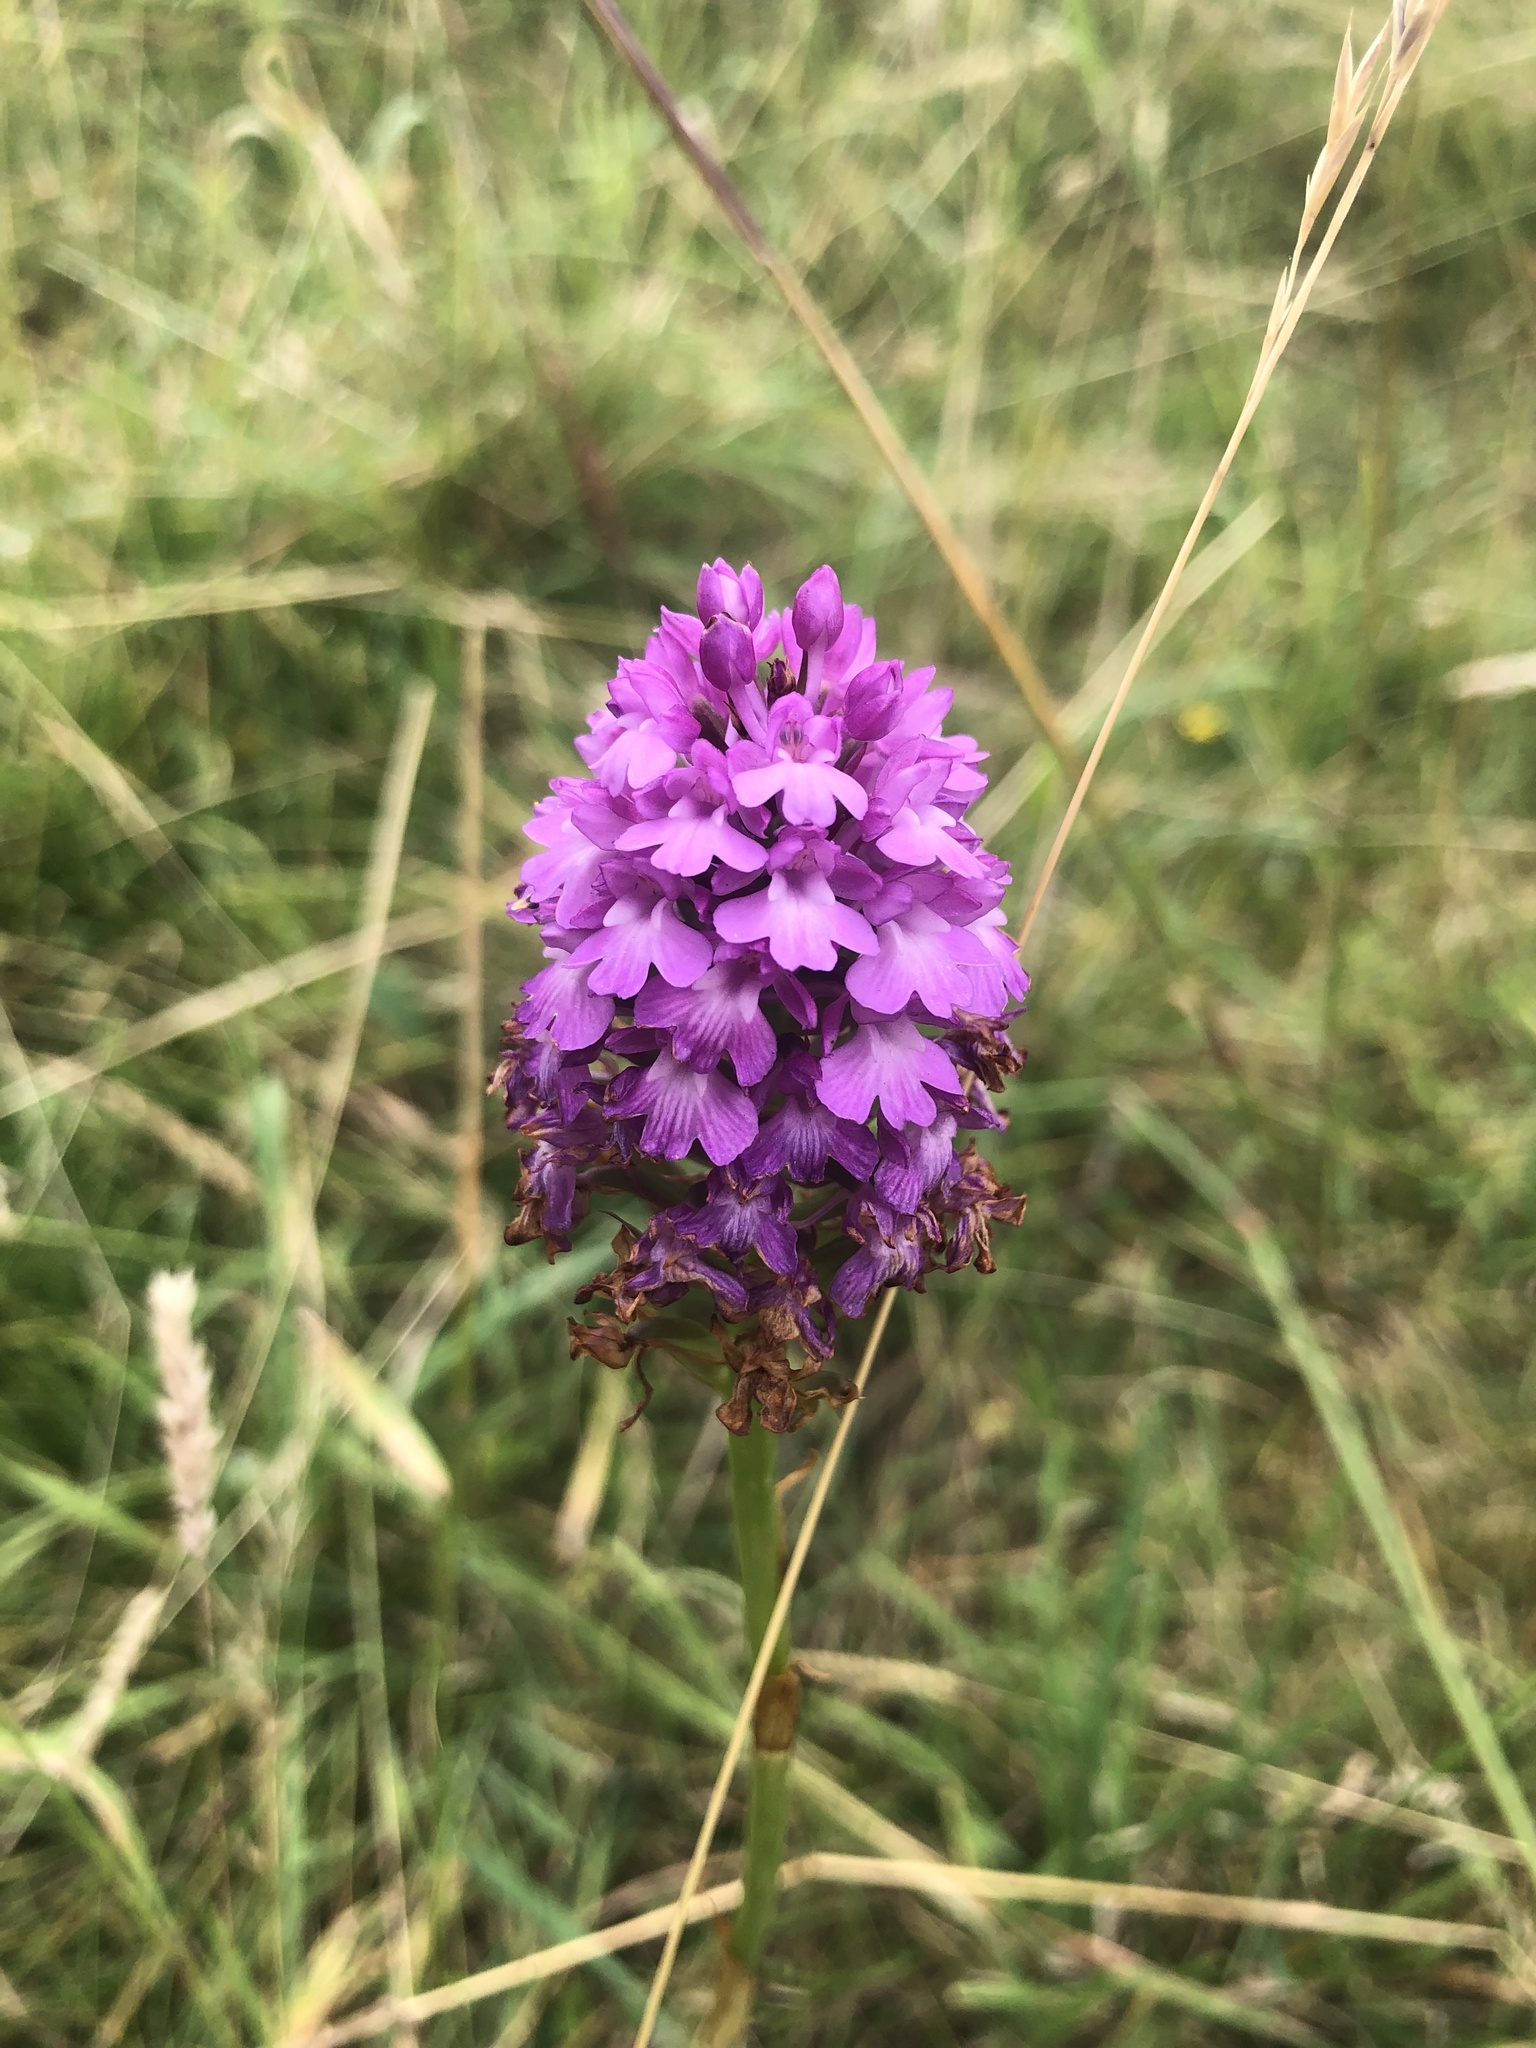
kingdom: Plantae
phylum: Tracheophyta
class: Liliopsida
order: Asparagales
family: Orchidaceae
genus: Anacamptis
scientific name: Anacamptis pyramidalis
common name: Pyramidal orchid
